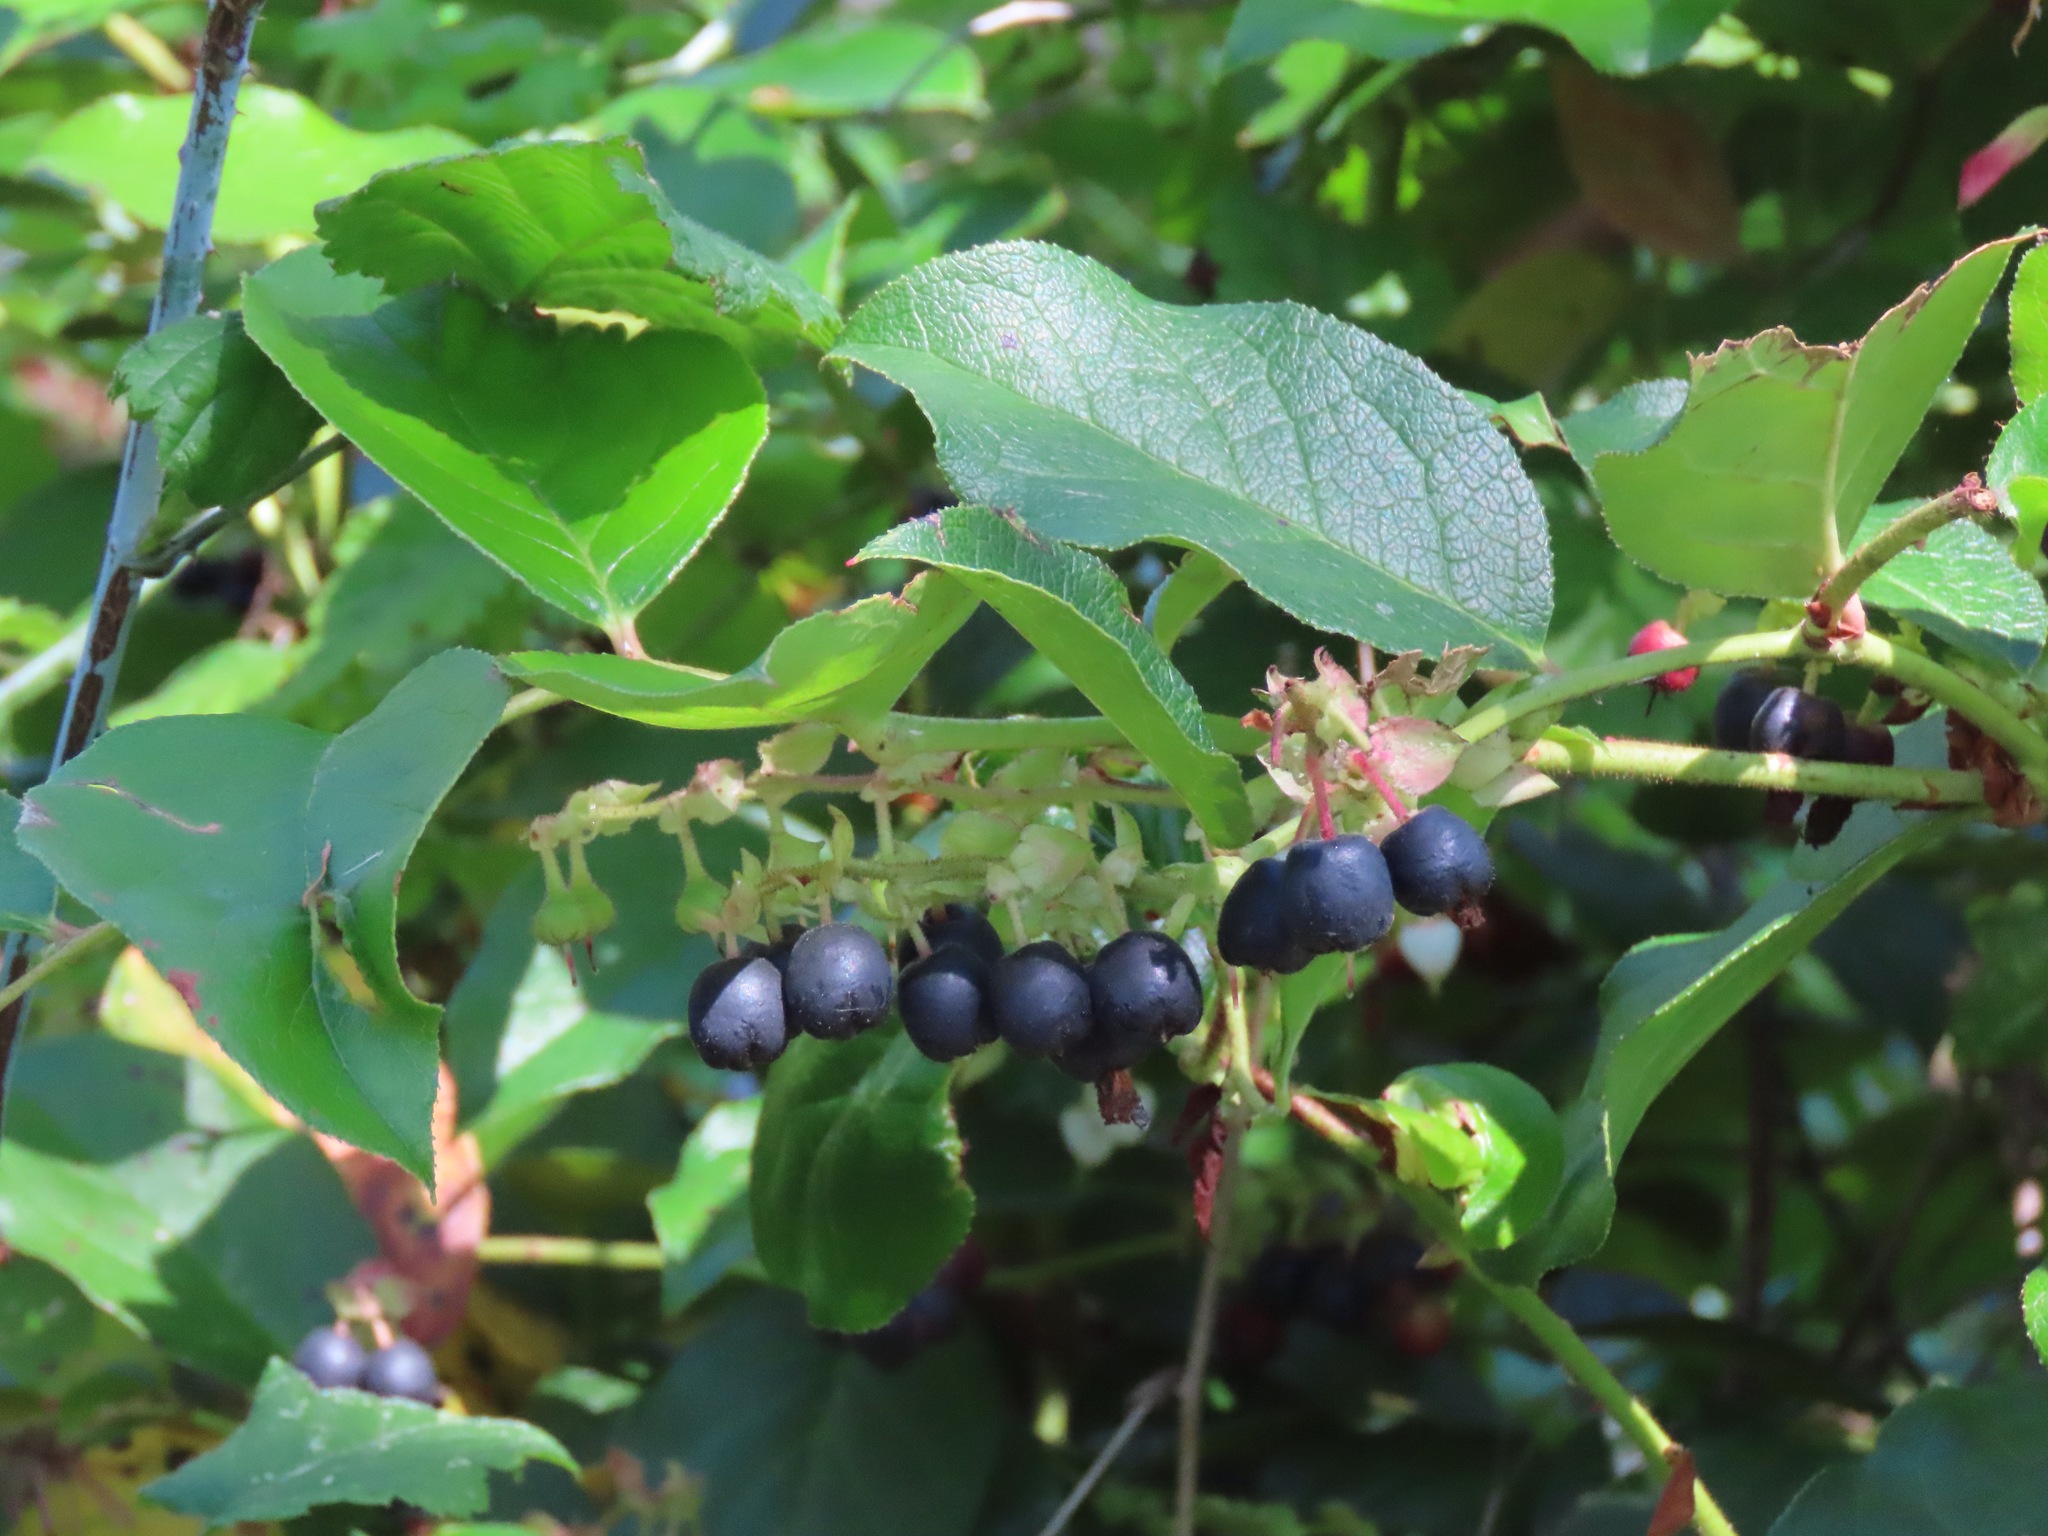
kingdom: Plantae
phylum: Tracheophyta
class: Magnoliopsida
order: Ericales
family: Ericaceae
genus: Gaultheria
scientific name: Gaultheria shallon
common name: Shallon
